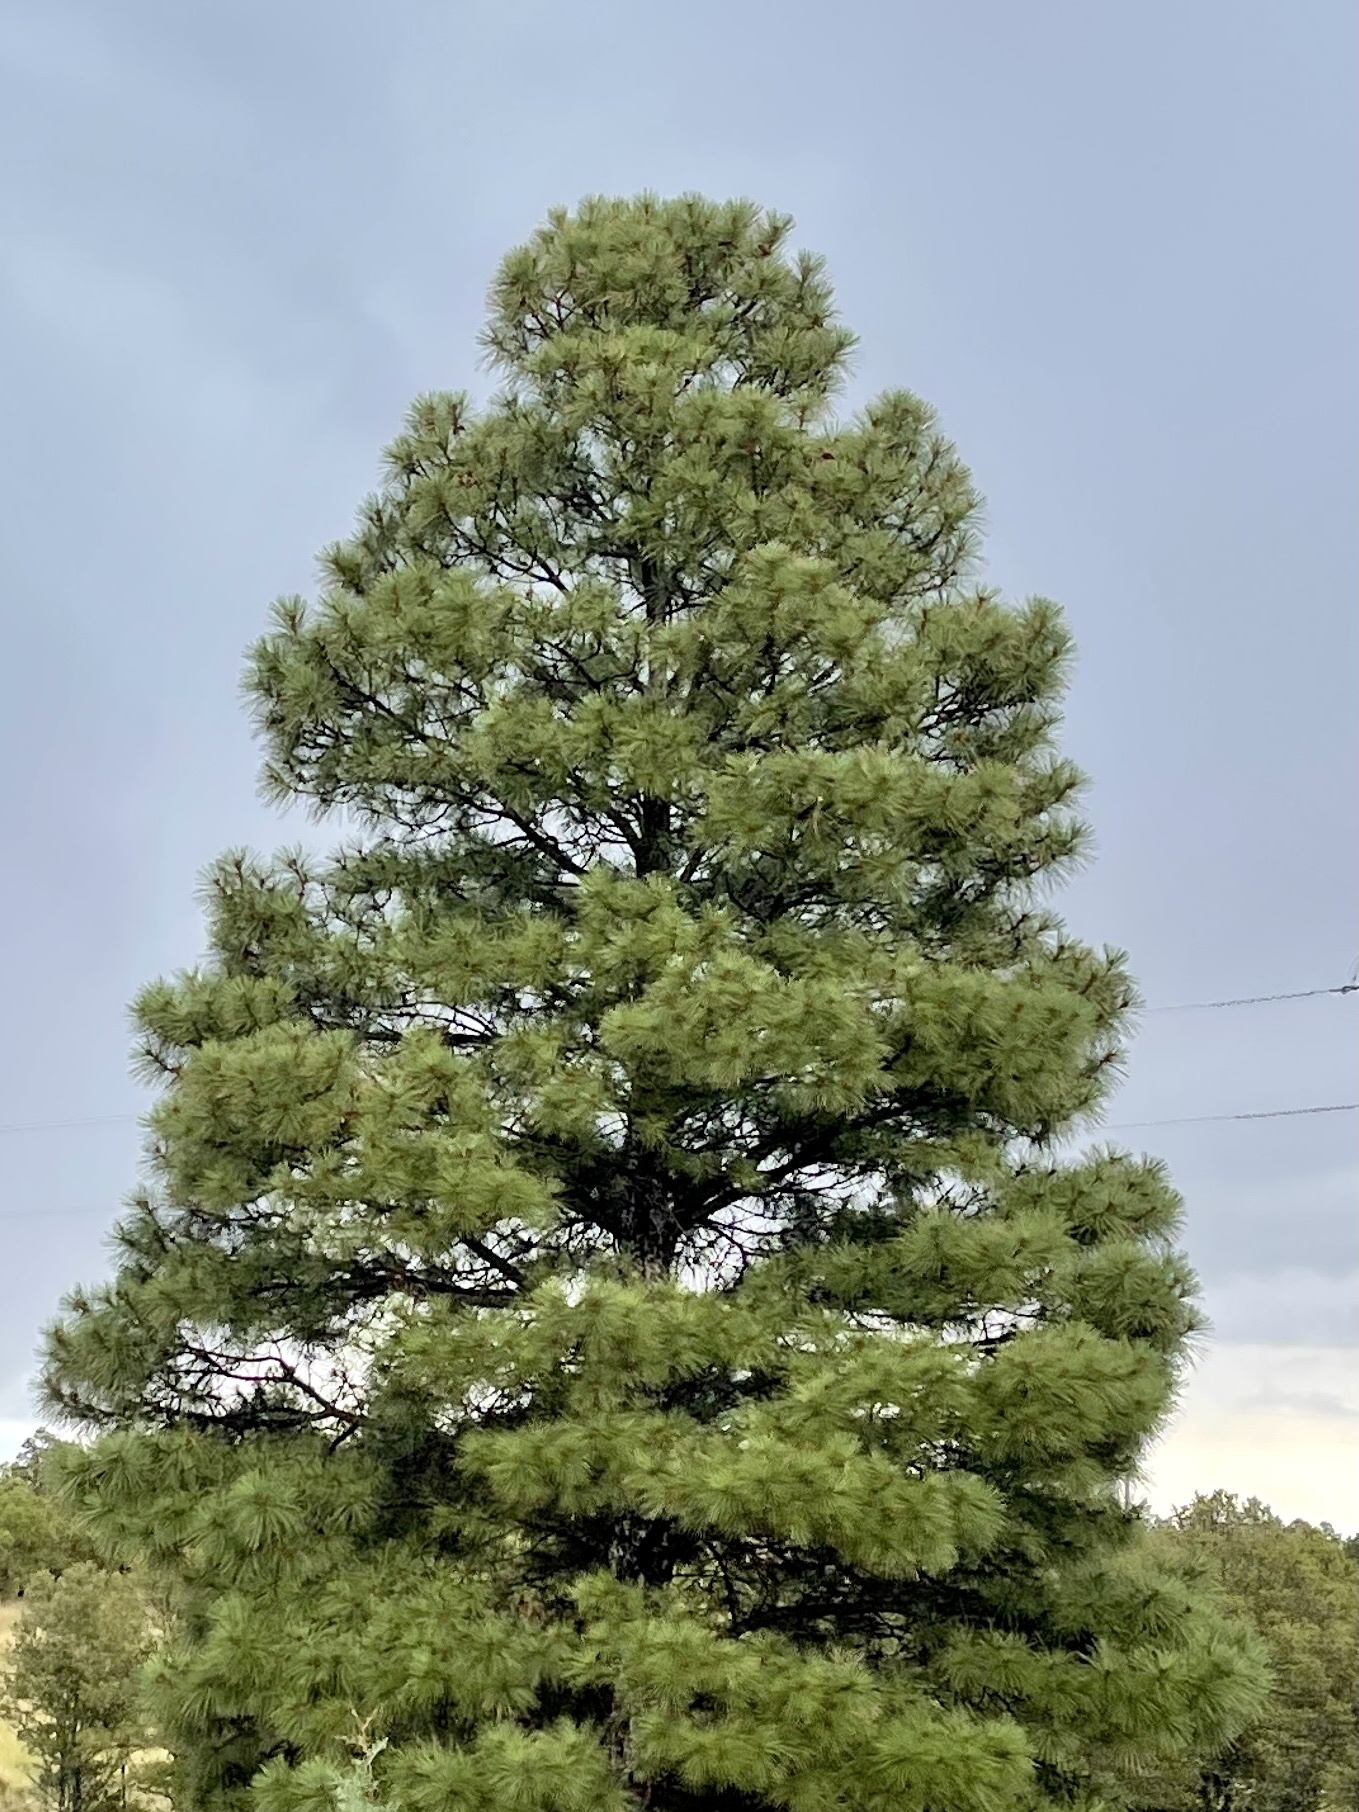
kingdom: Plantae
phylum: Tracheophyta
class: Pinopsida
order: Pinales
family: Pinaceae
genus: Pinus
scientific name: Pinus ponderosa
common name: Western yellow-pine
